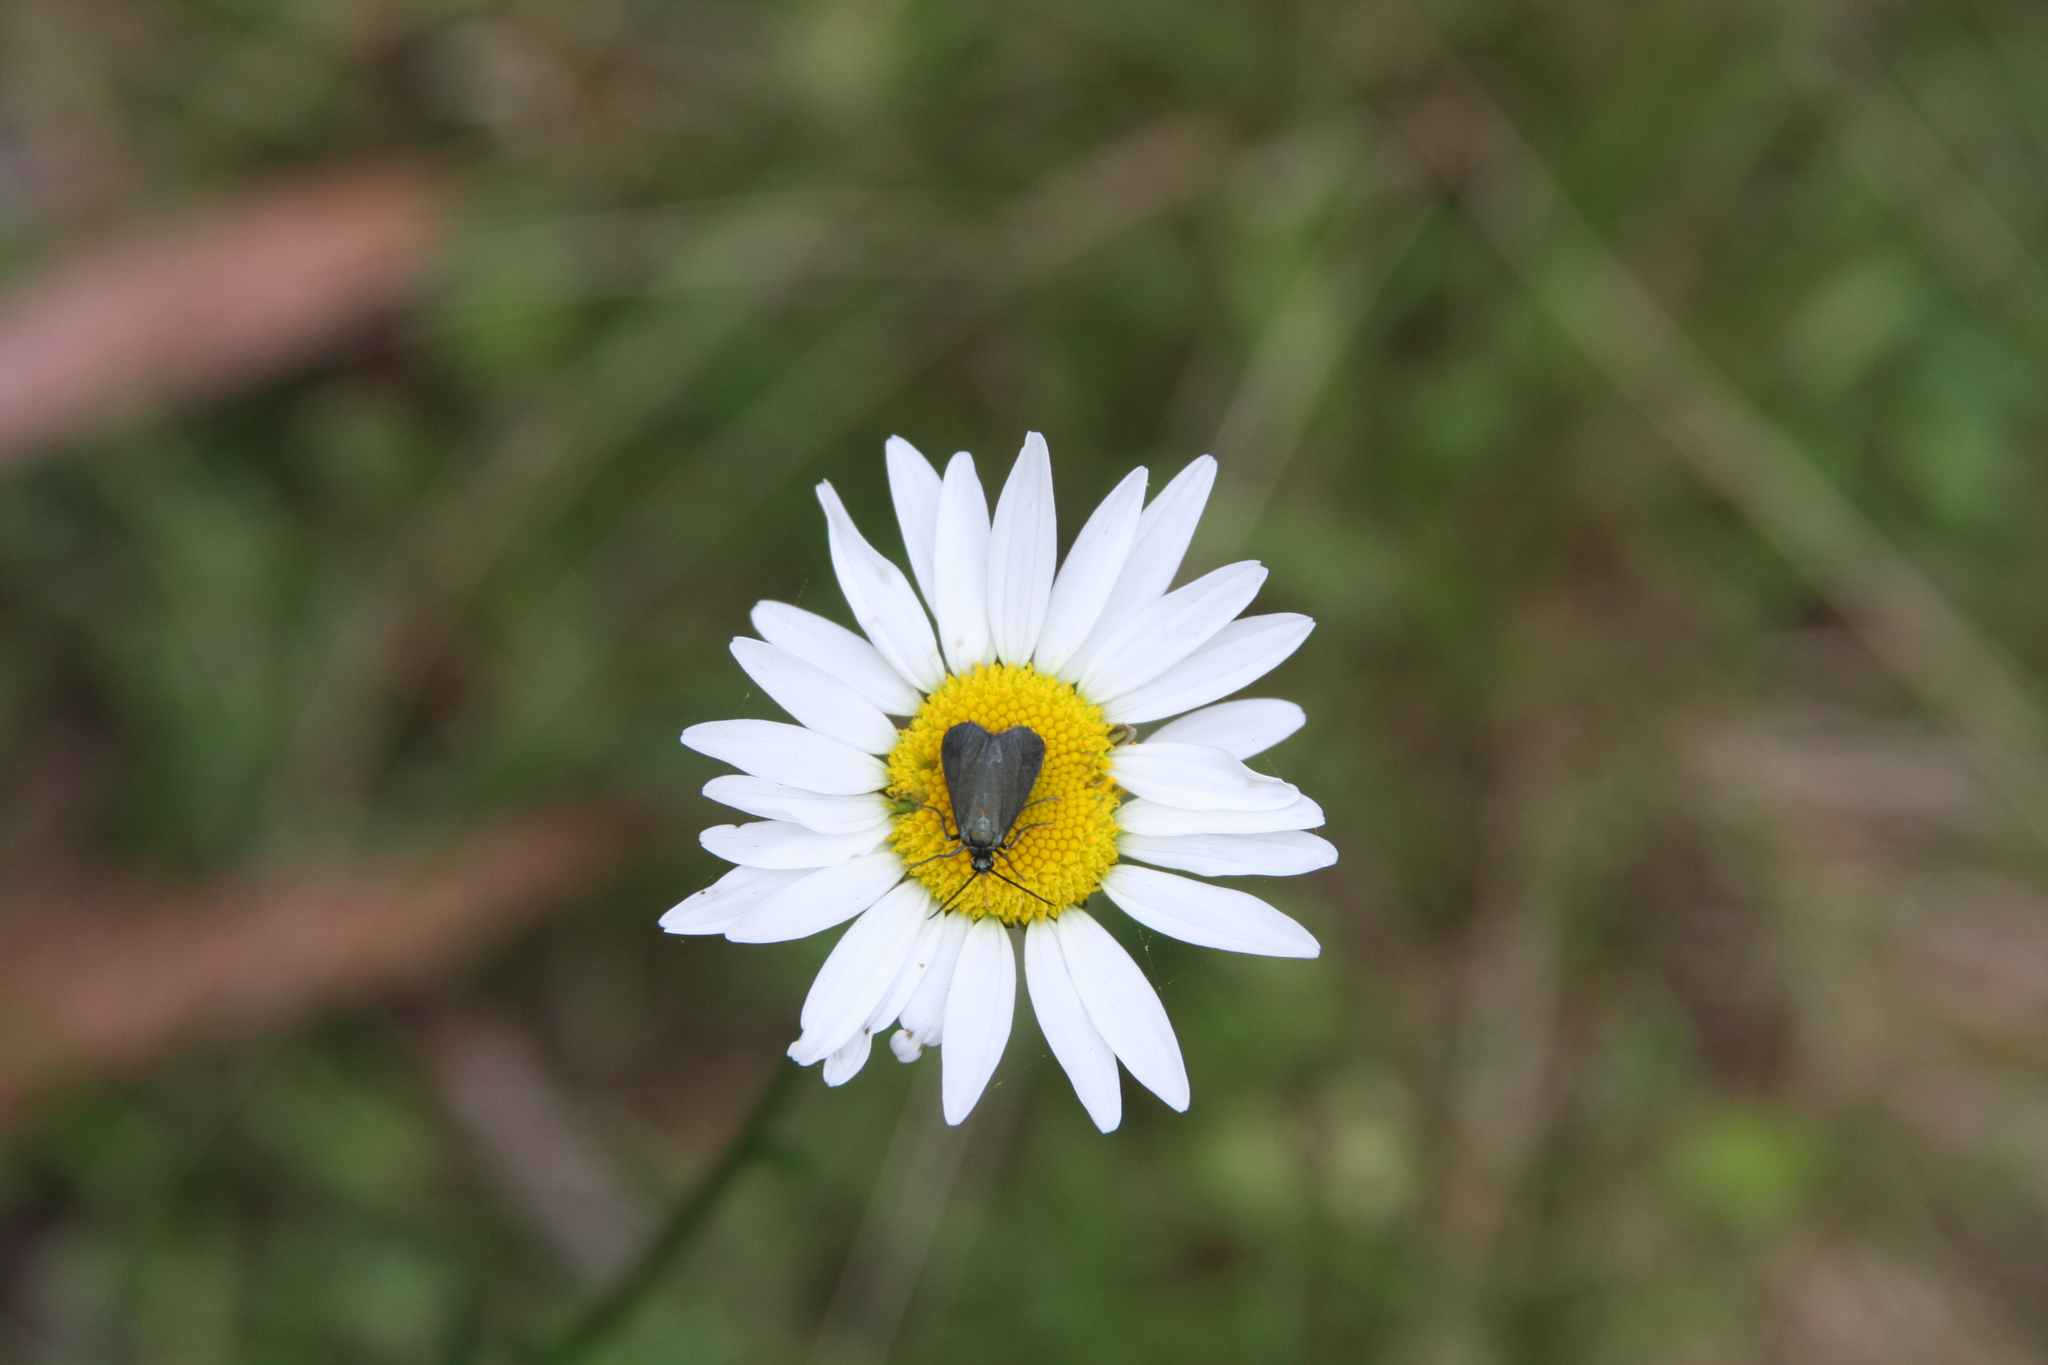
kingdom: Plantae
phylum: Tracheophyta
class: Magnoliopsida
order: Asterales
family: Asteraceae
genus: Leucanthemum
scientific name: Leucanthemum vulgare
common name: Oxeye daisy
